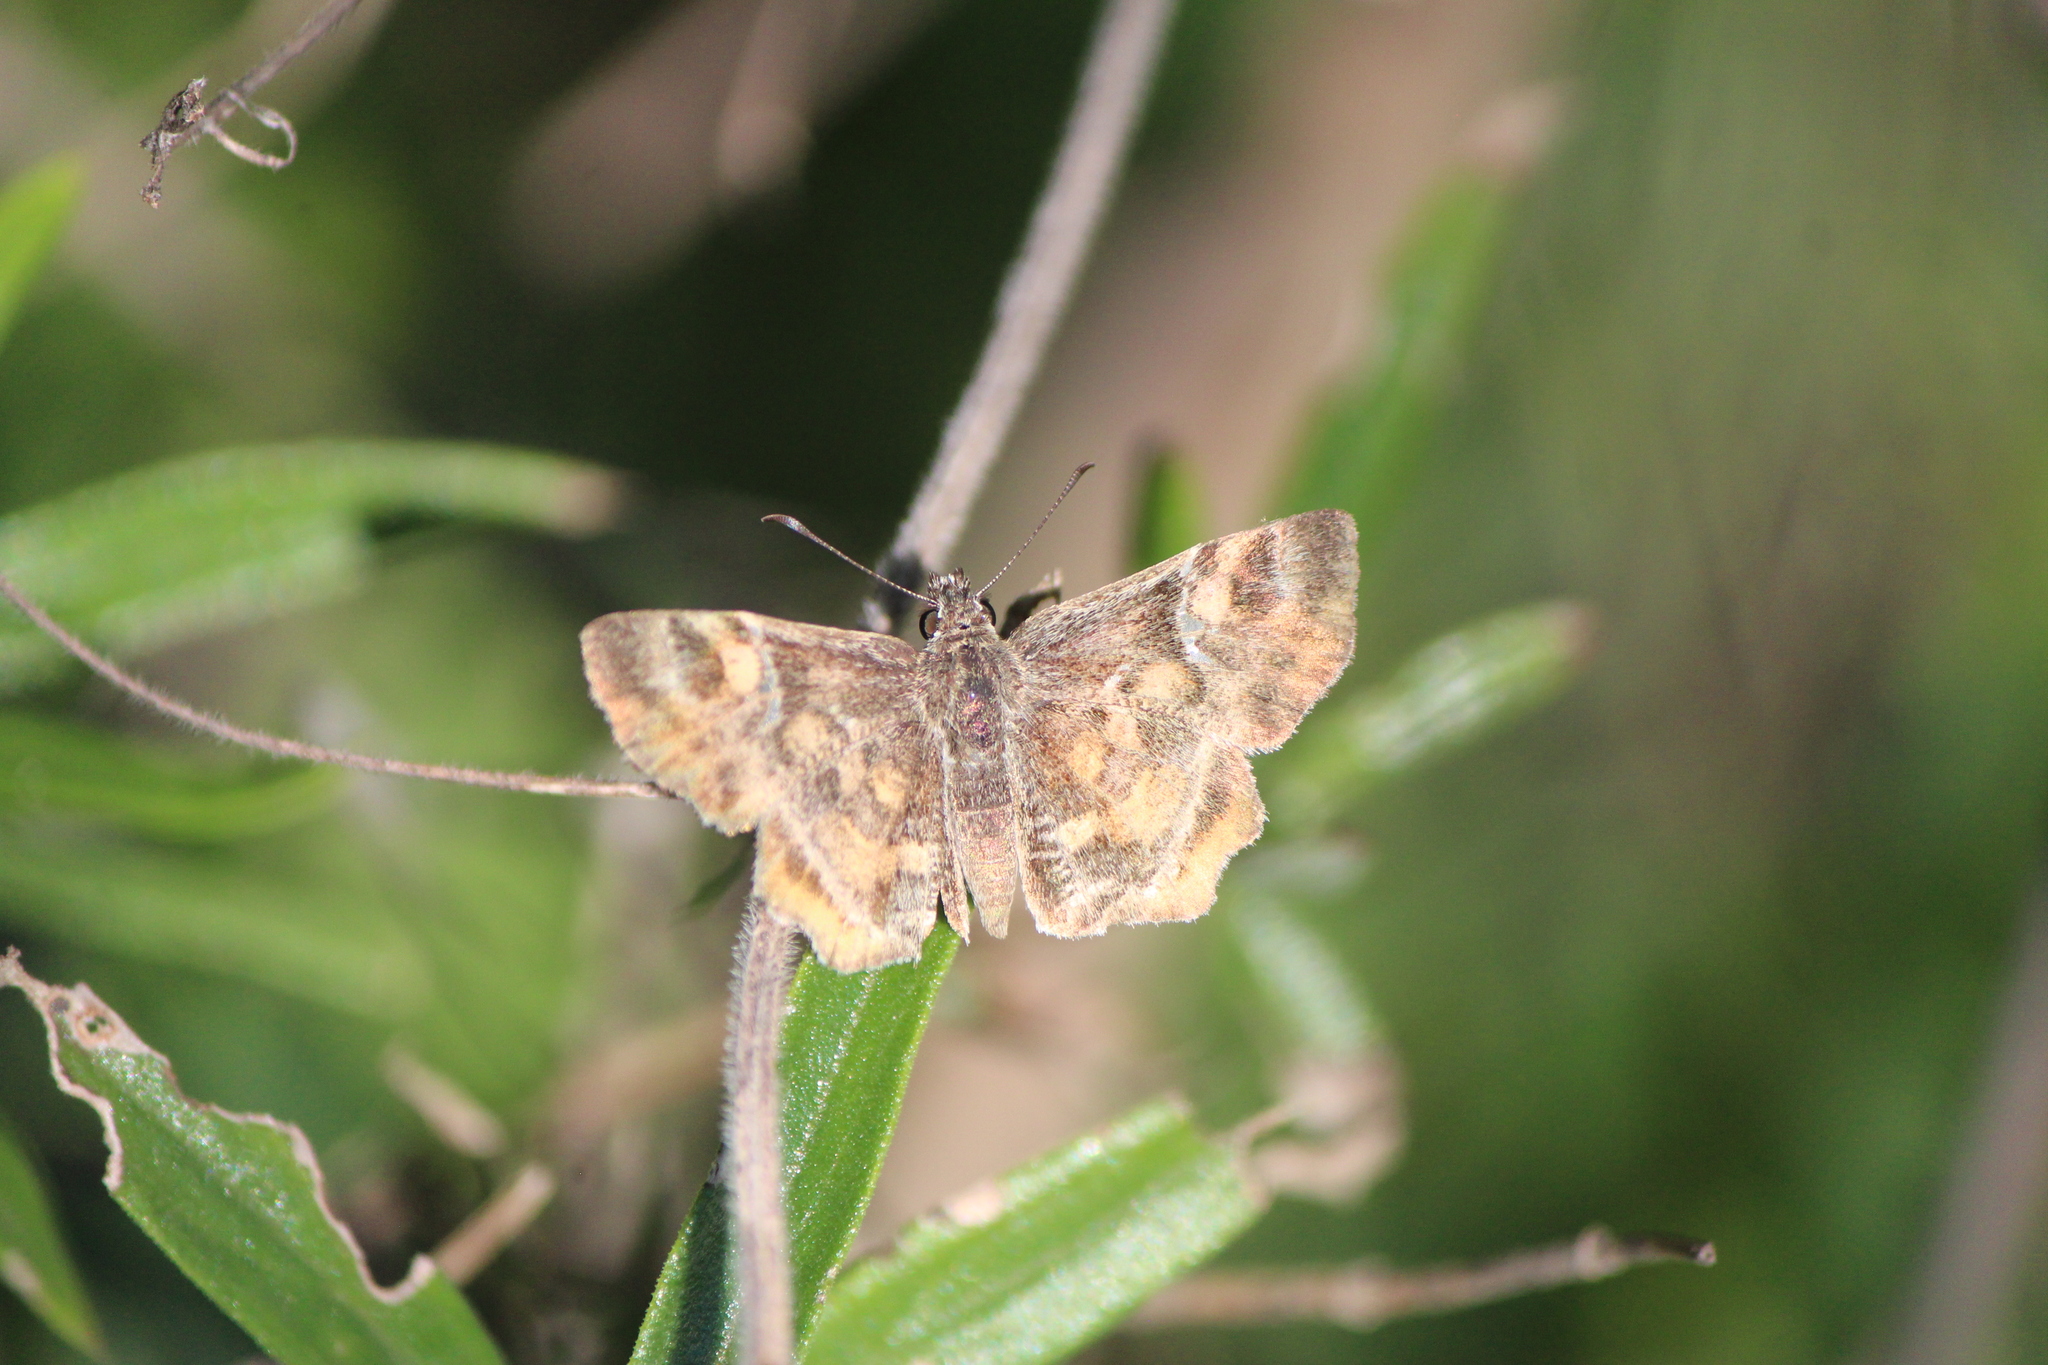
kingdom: Animalia
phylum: Arthropoda
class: Insecta
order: Lepidoptera
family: Hesperiidae
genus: Systasea
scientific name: Systasea pulverulenta
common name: Texas powdered skipper
